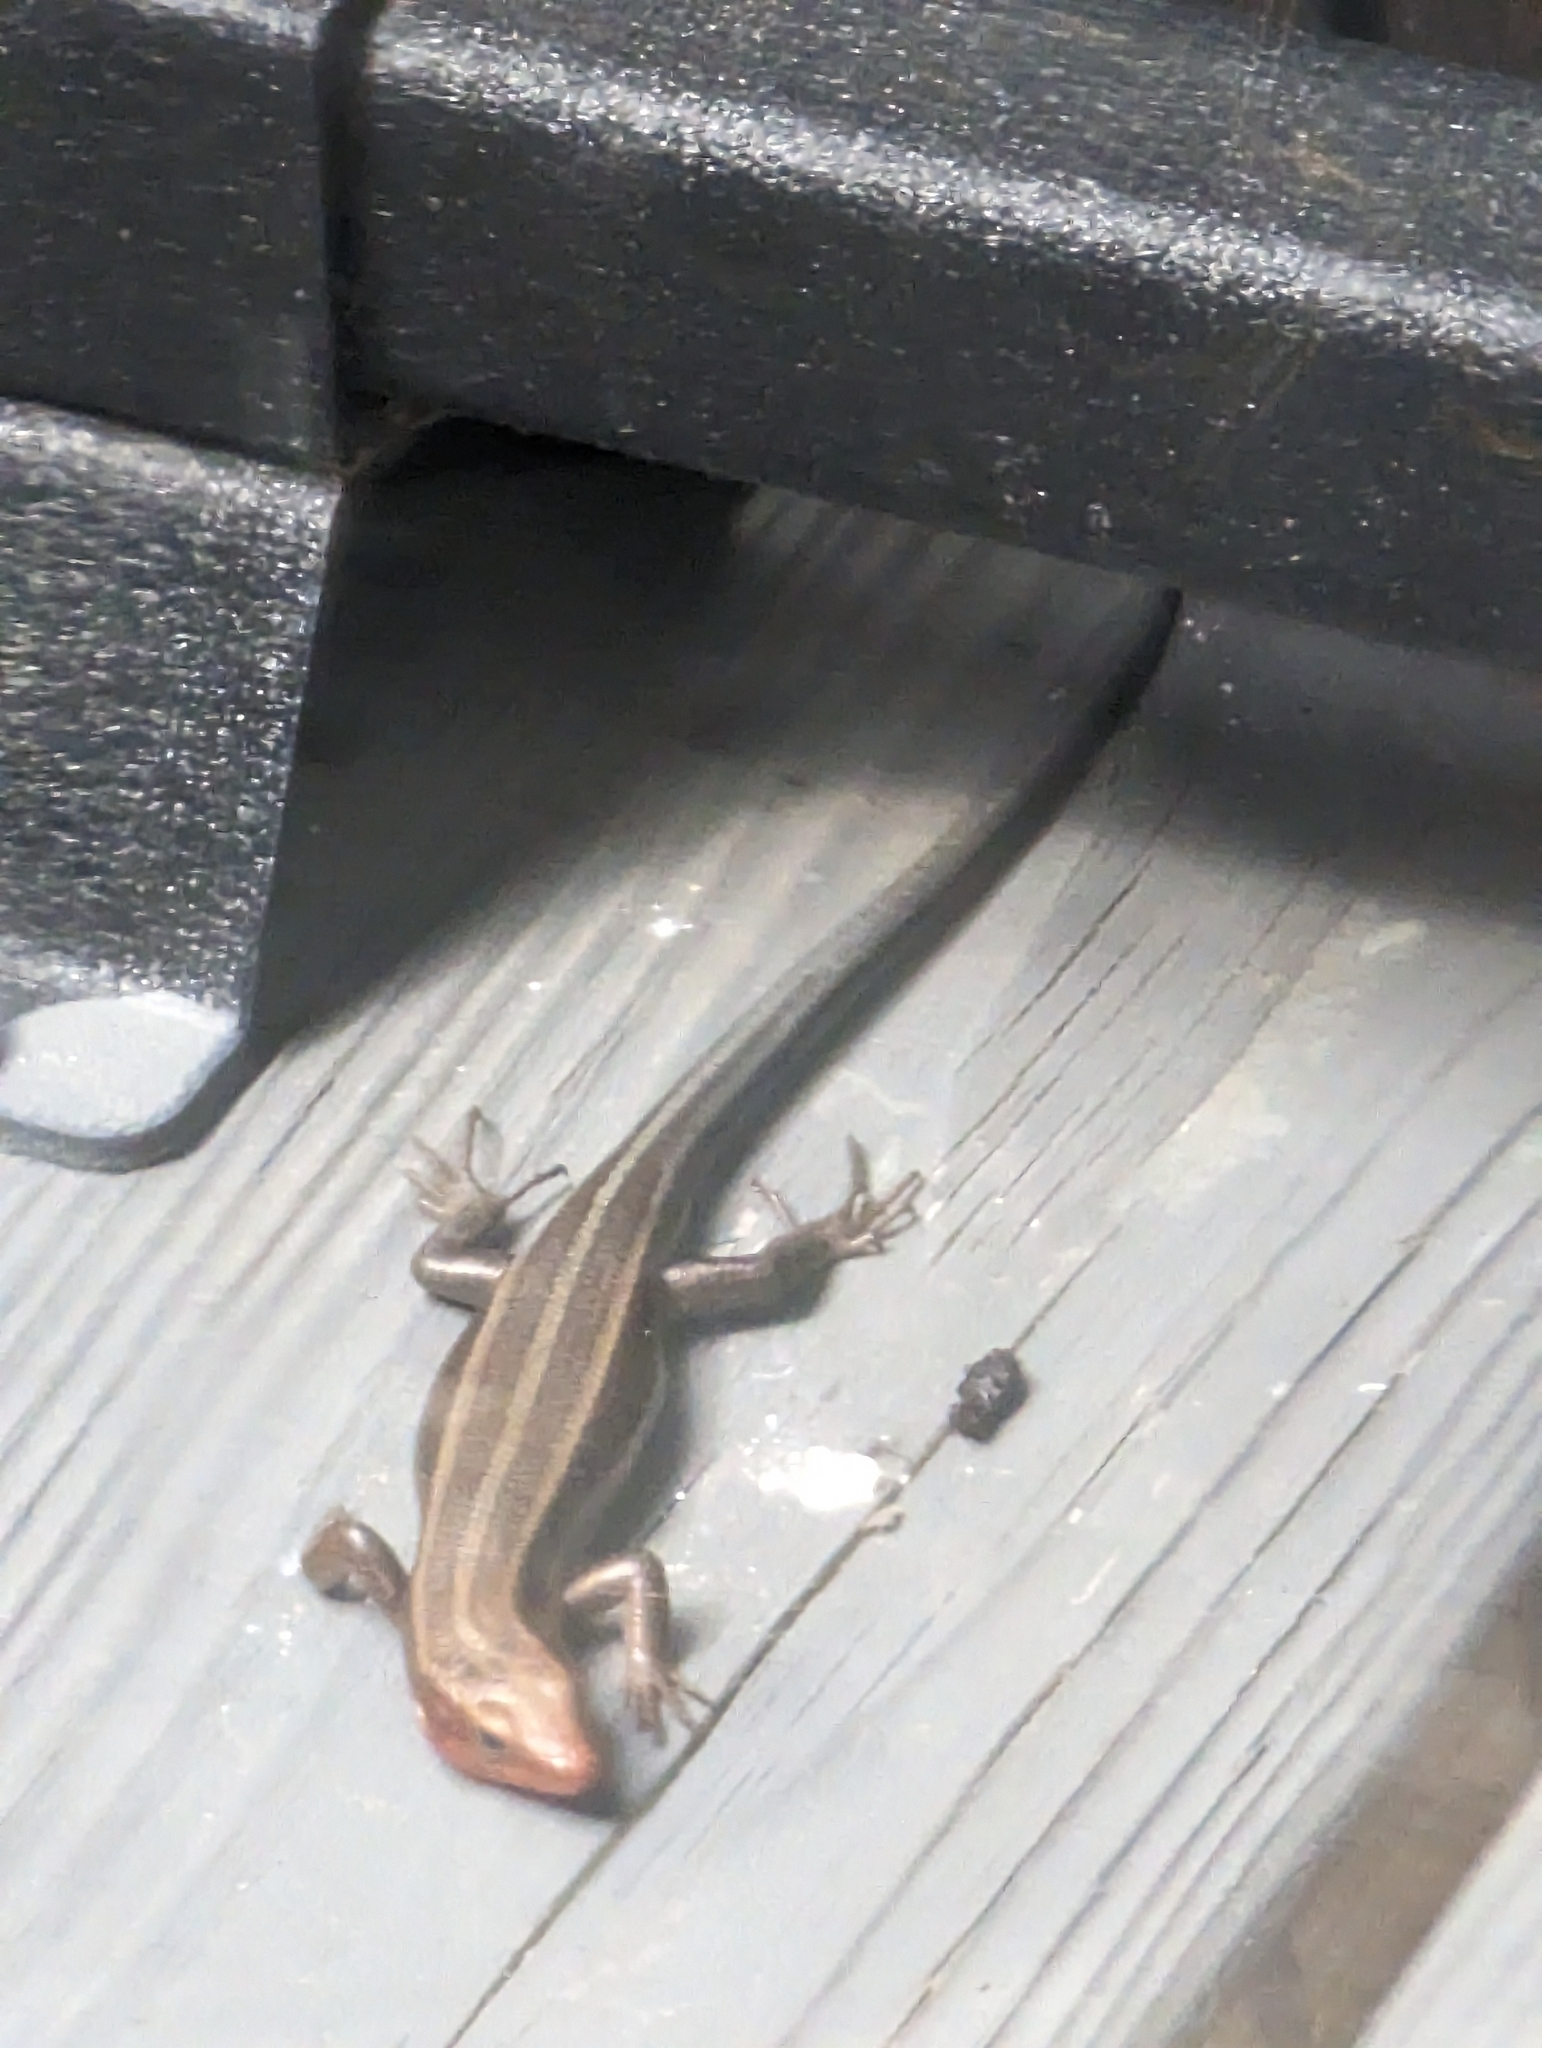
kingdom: Animalia
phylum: Chordata
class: Squamata
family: Scincidae
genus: Plestiodon
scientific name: Plestiodon fasciatus
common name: Five-lined skink
